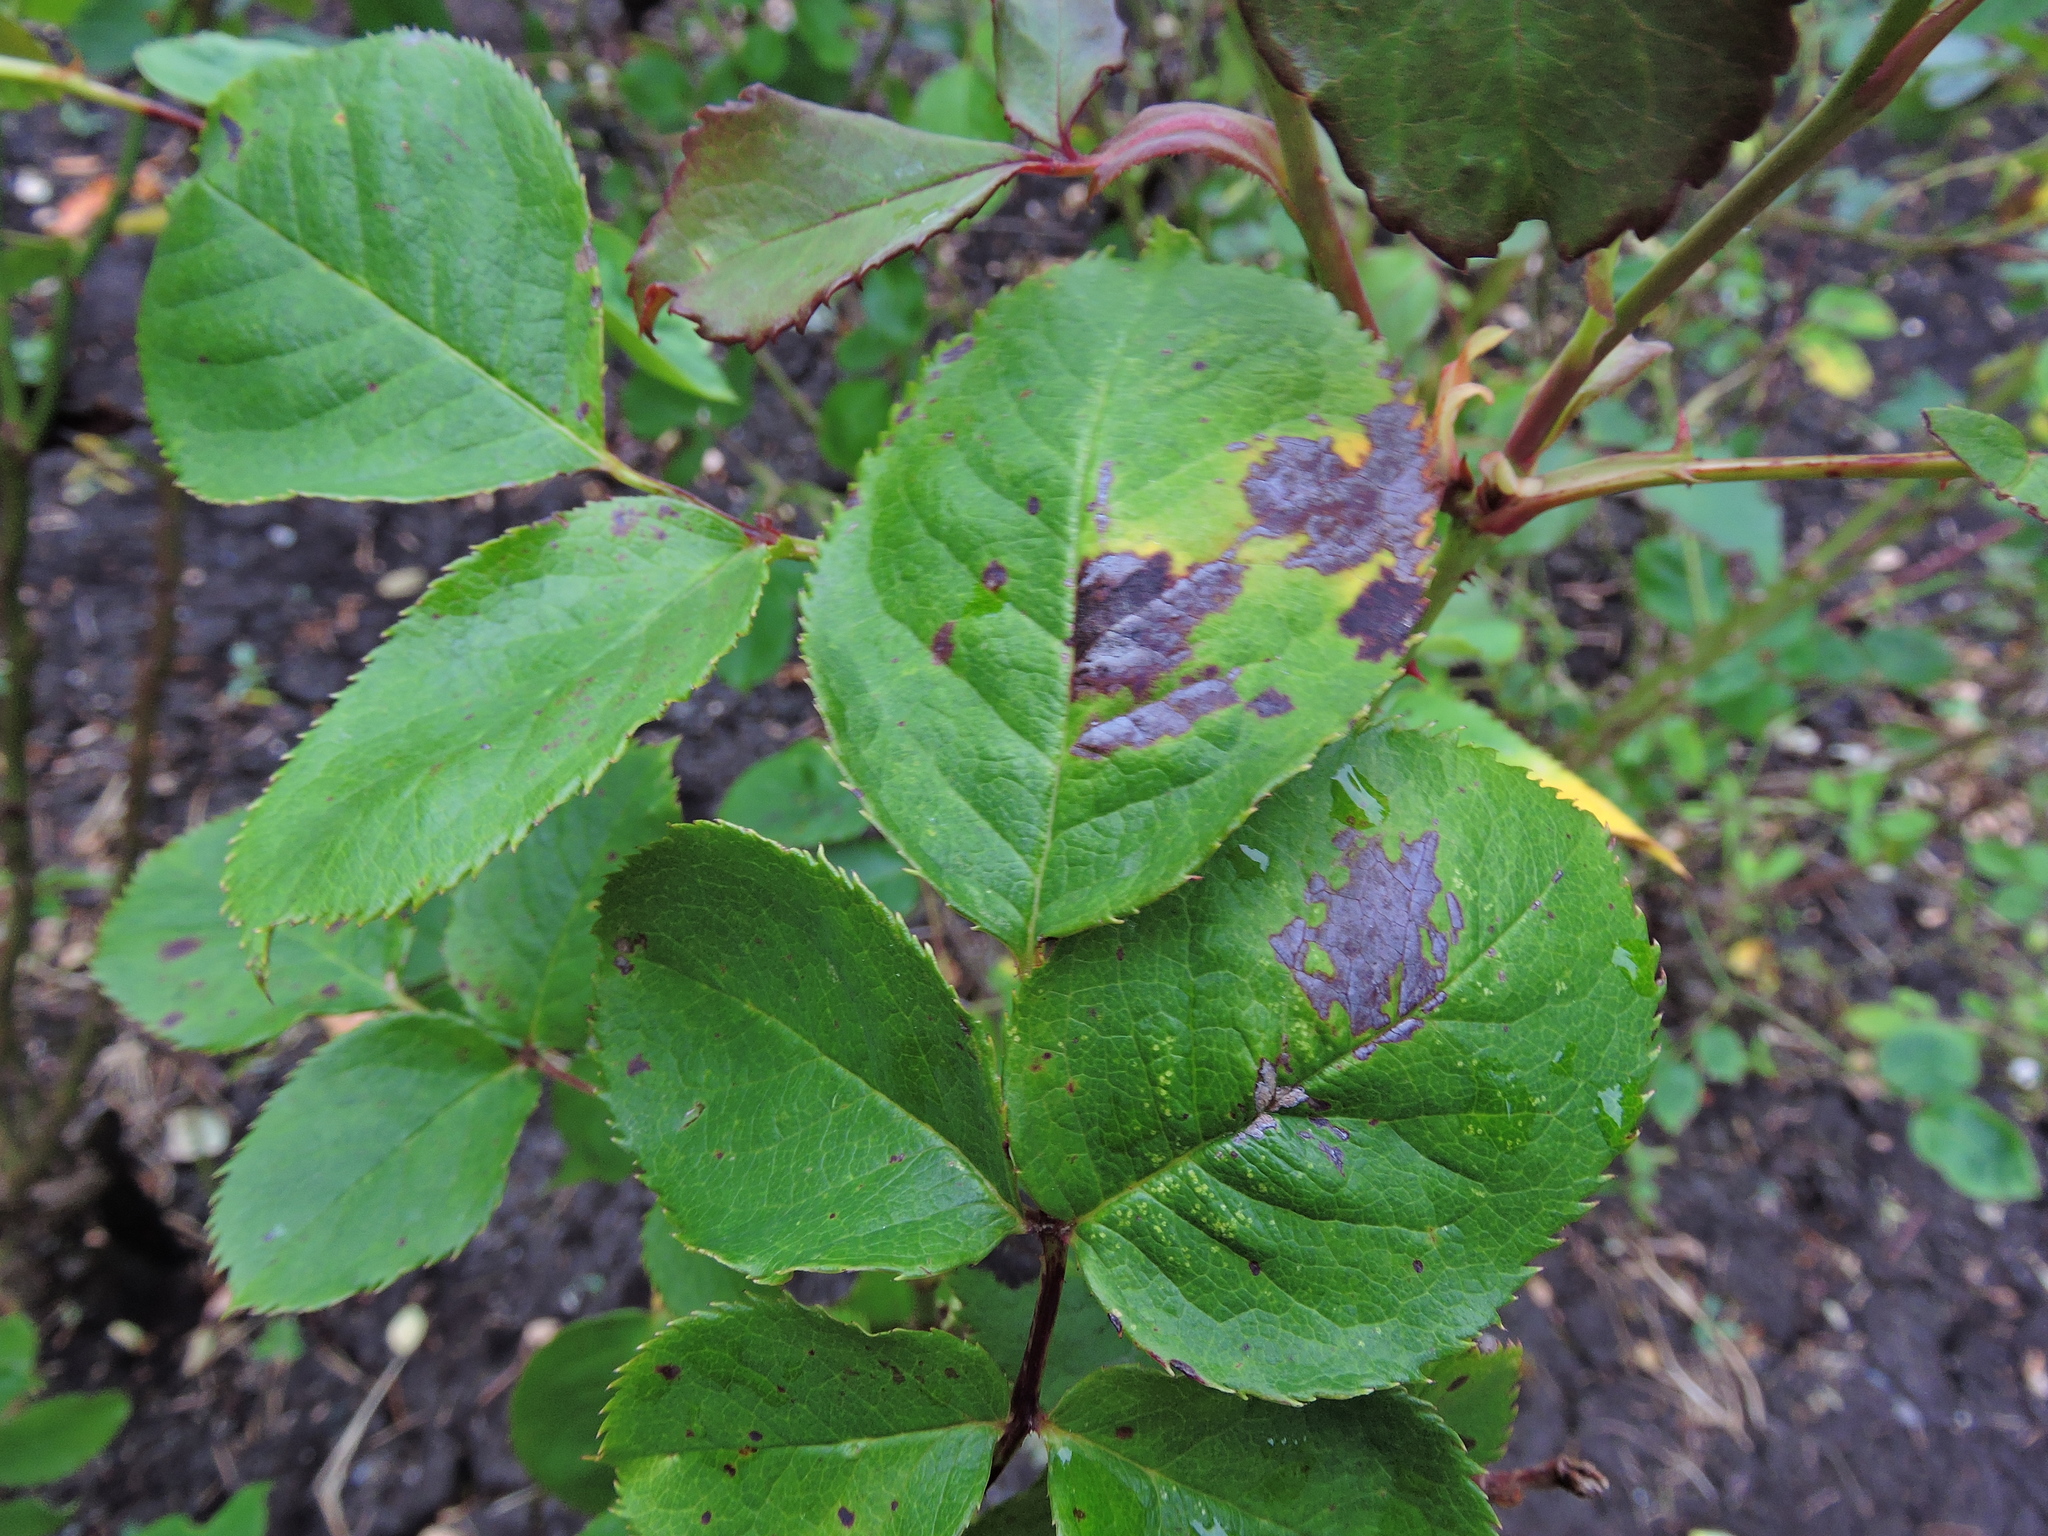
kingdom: Fungi
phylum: Ascomycota
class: Leotiomycetes
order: Helotiales
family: Drepanopezizaceae
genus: Diplocarpon
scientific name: Diplocarpon rosae
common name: Rose black-spot
